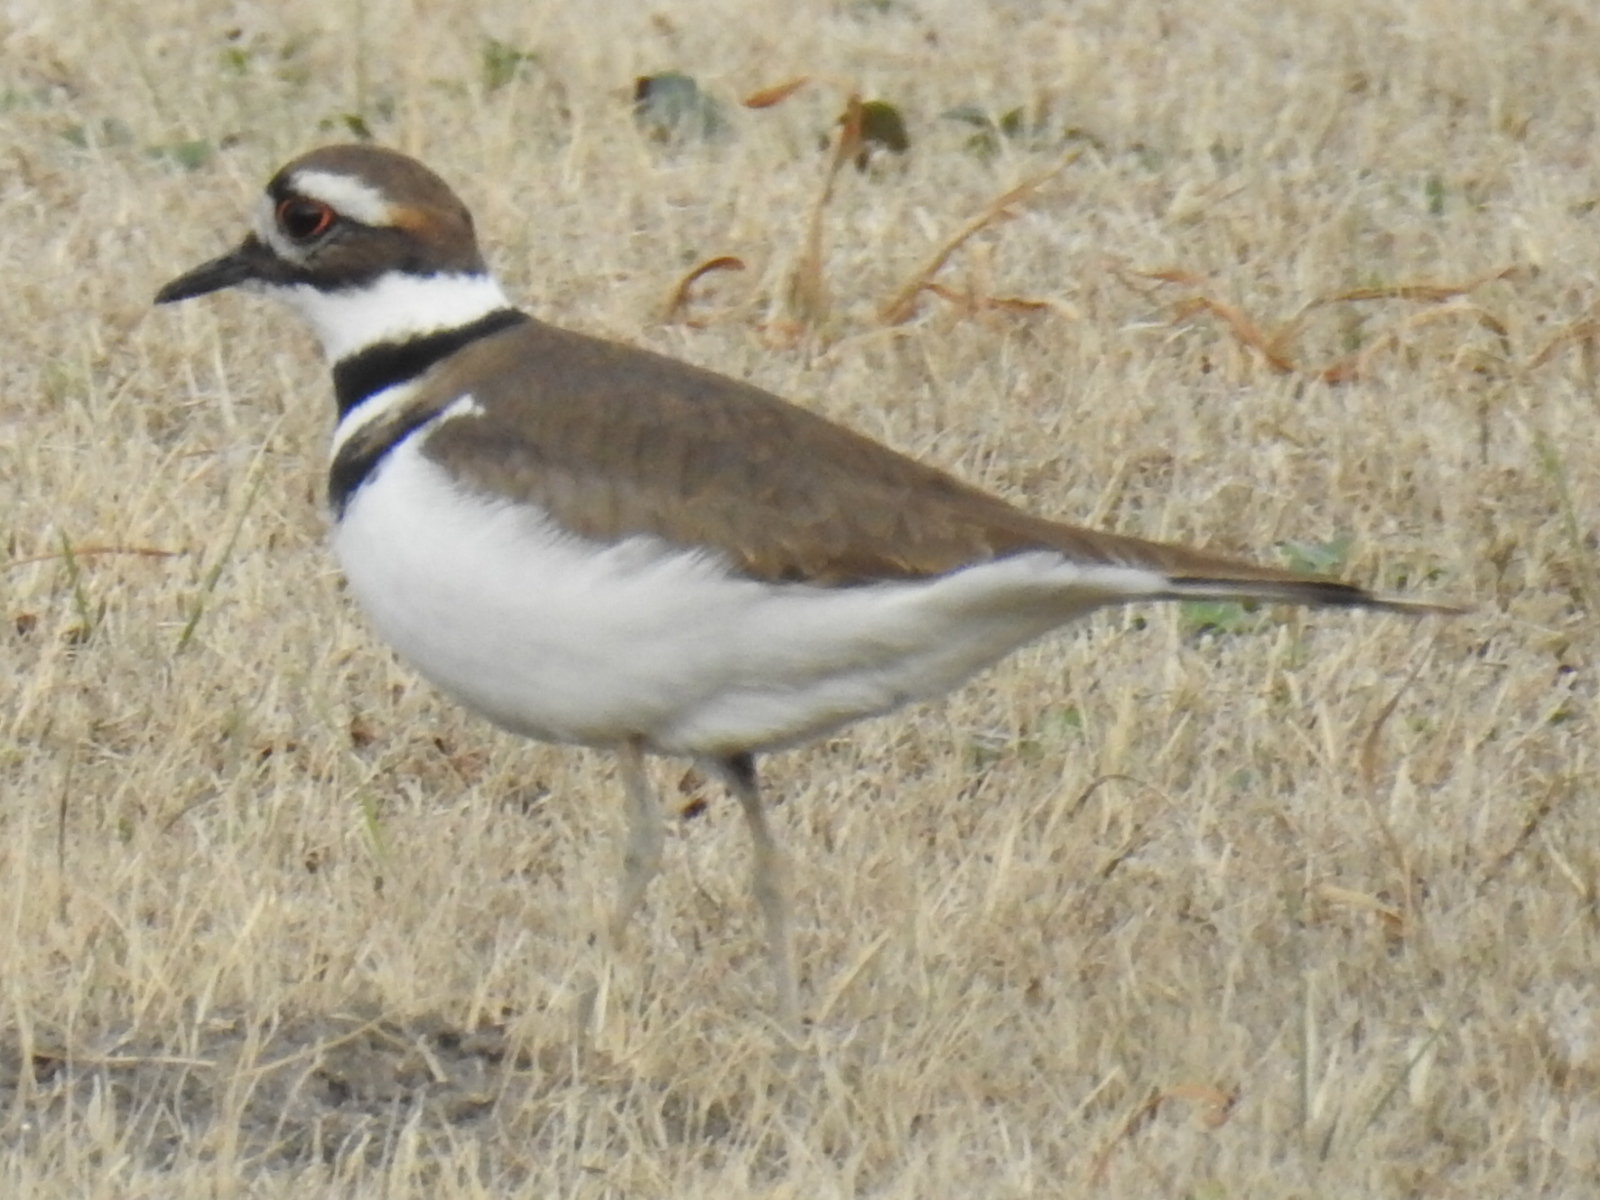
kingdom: Animalia
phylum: Chordata
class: Aves
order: Charadriiformes
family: Charadriidae
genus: Charadrius
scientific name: Charadrius vociferus
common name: Killdeer
